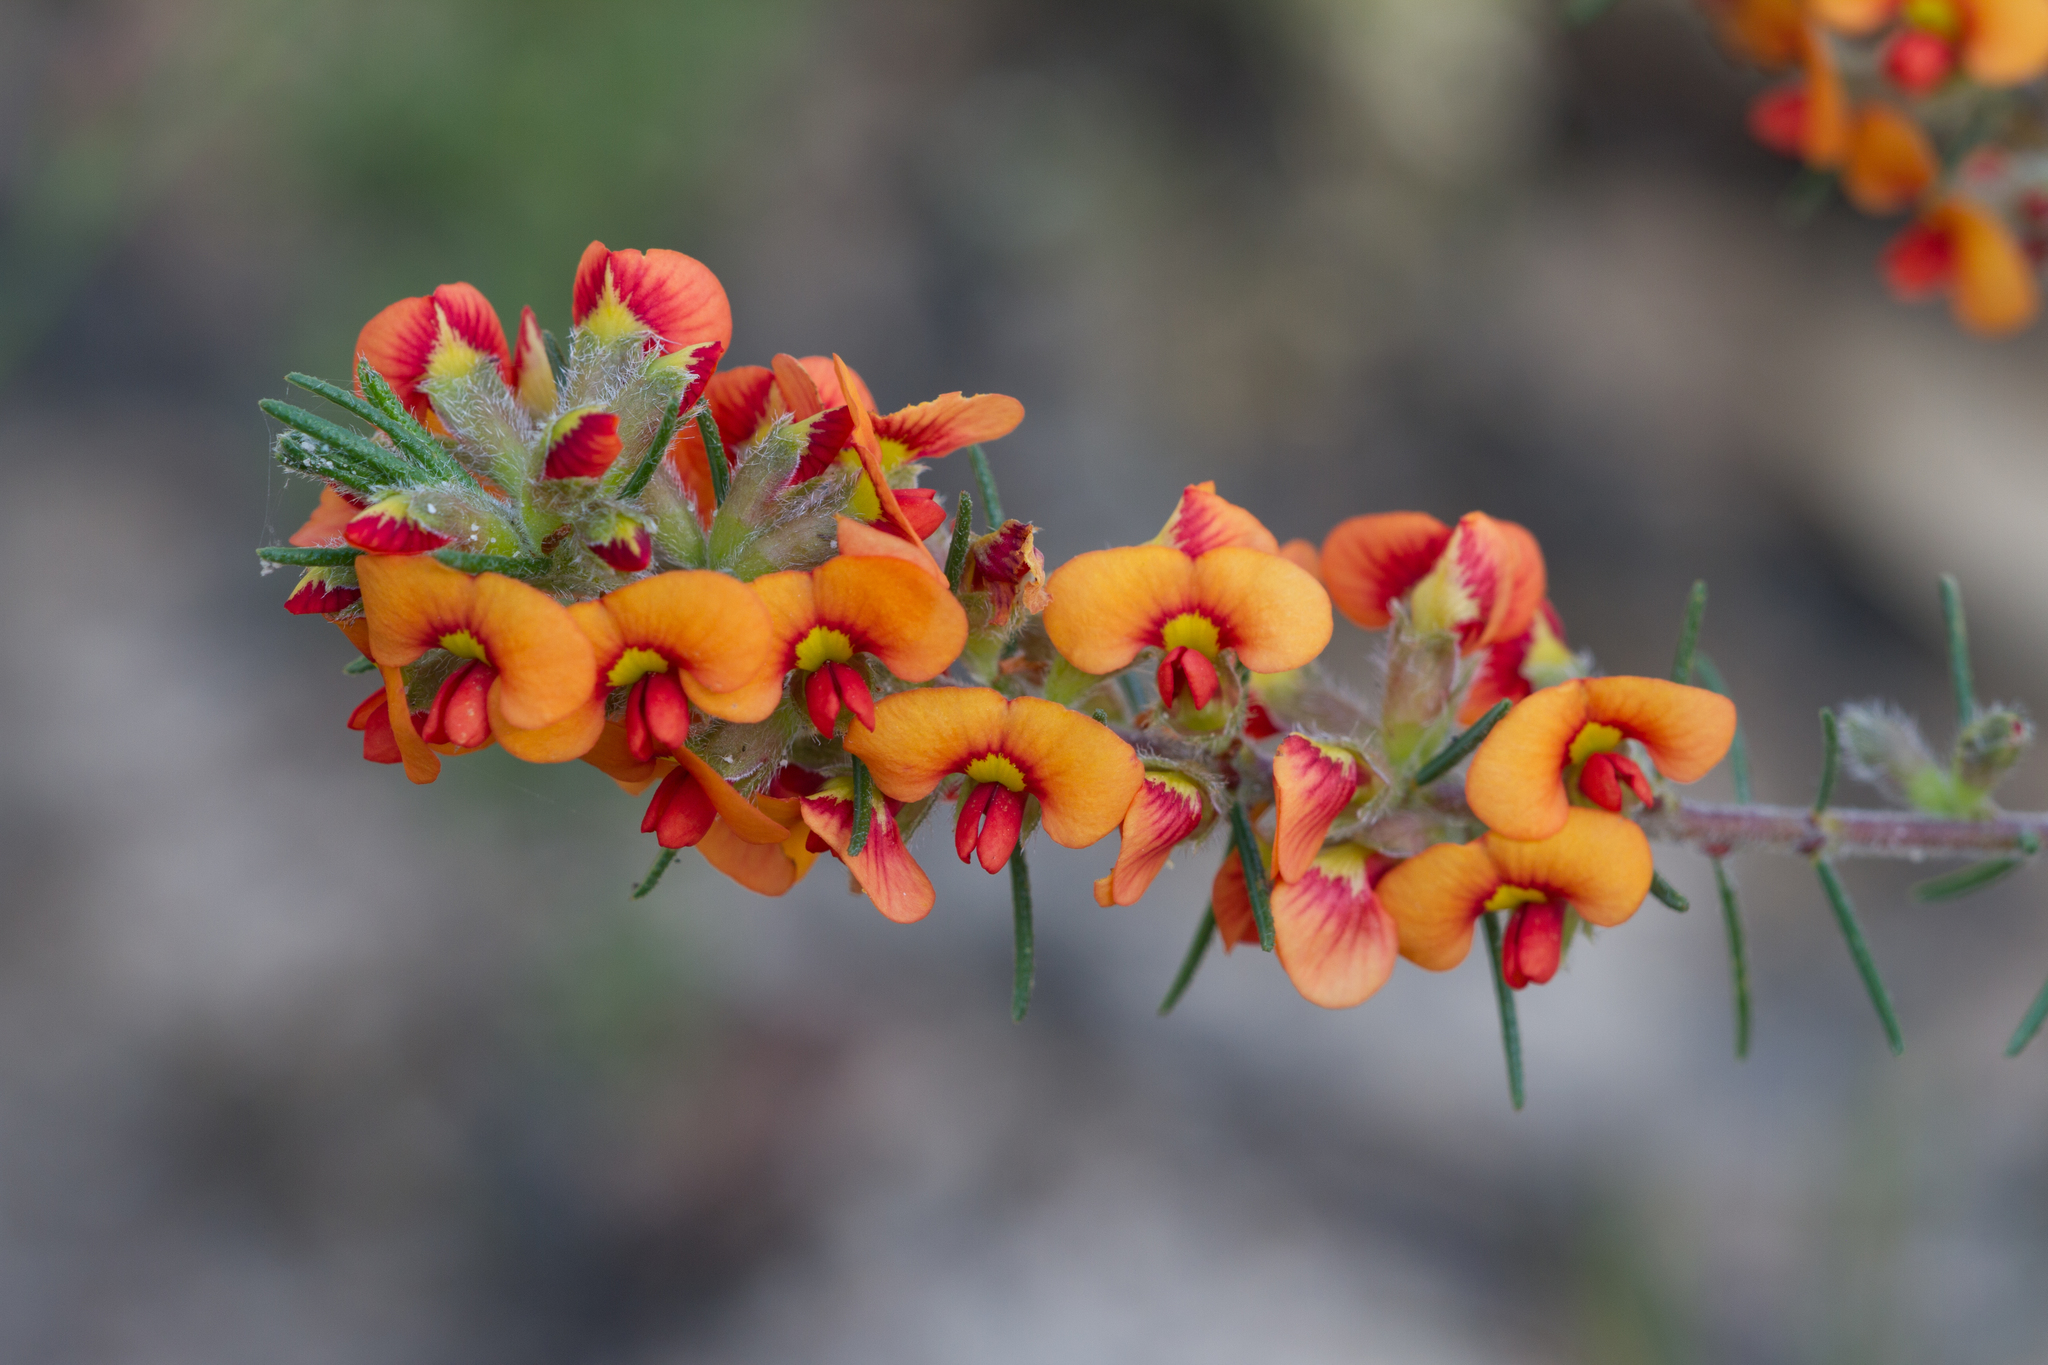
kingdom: Plantae
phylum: Tracheophyta
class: Magnoliopsida
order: Fabales
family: Fabaceae
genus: Dillwynia
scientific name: Dillwynia sericea
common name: Showy parrot-pea
